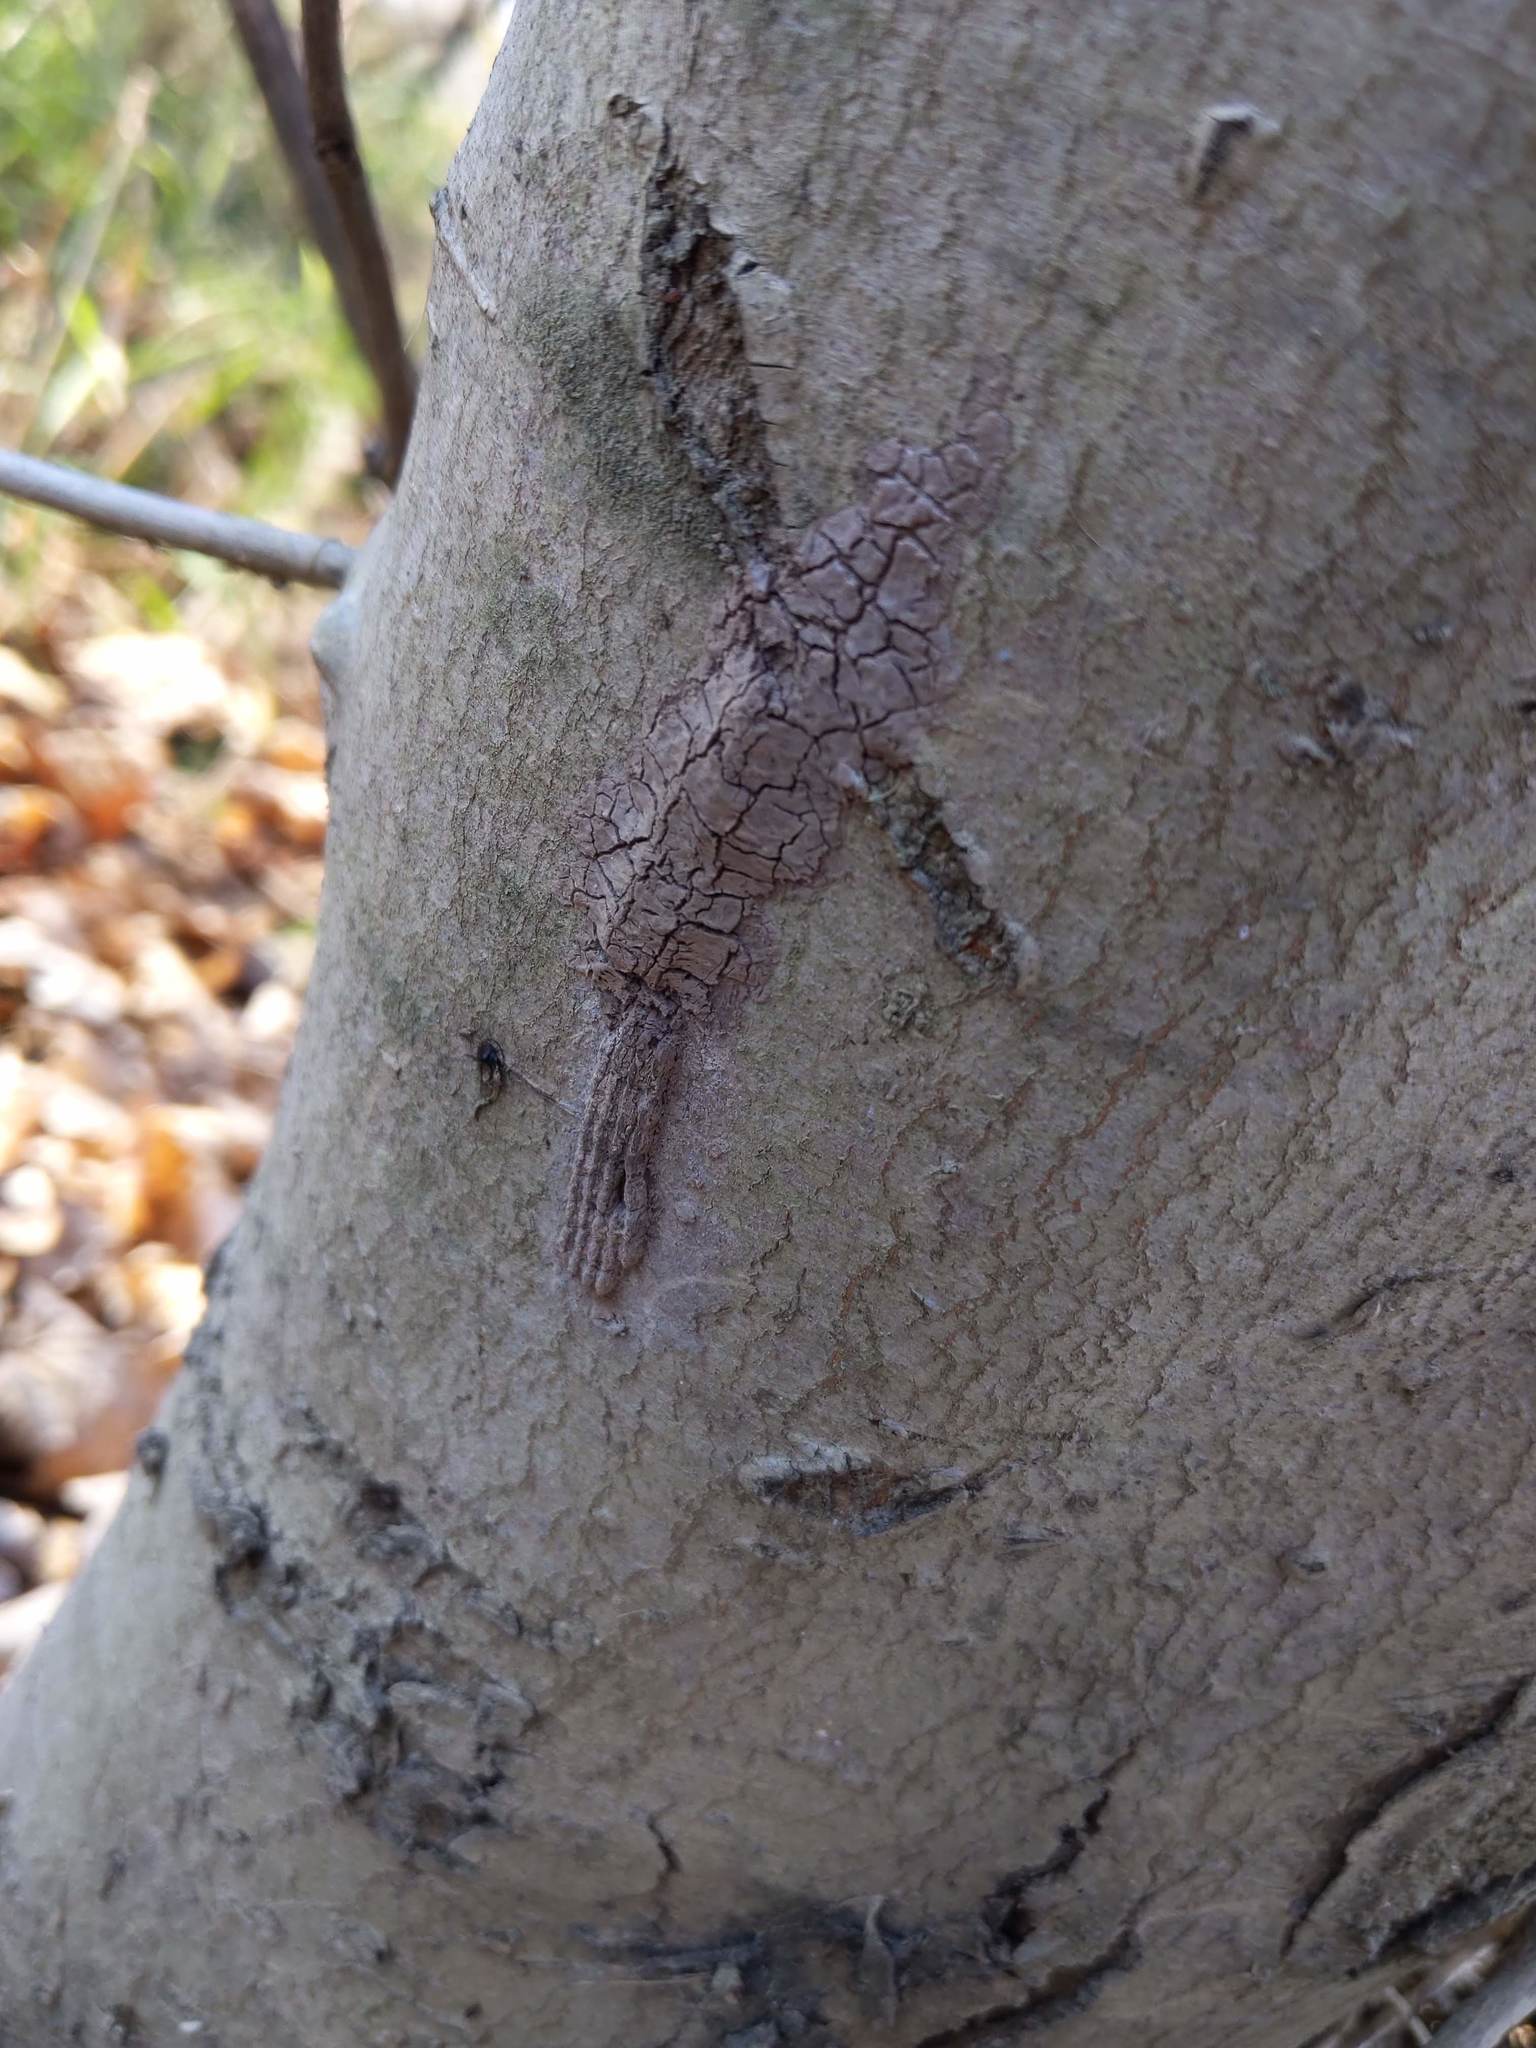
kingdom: Animalia
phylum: Arthropoda
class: Insecta
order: Hemiptera
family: Fulgoridae
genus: Lycorma
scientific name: Lycorma delicatula
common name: Spotted lanternfly
